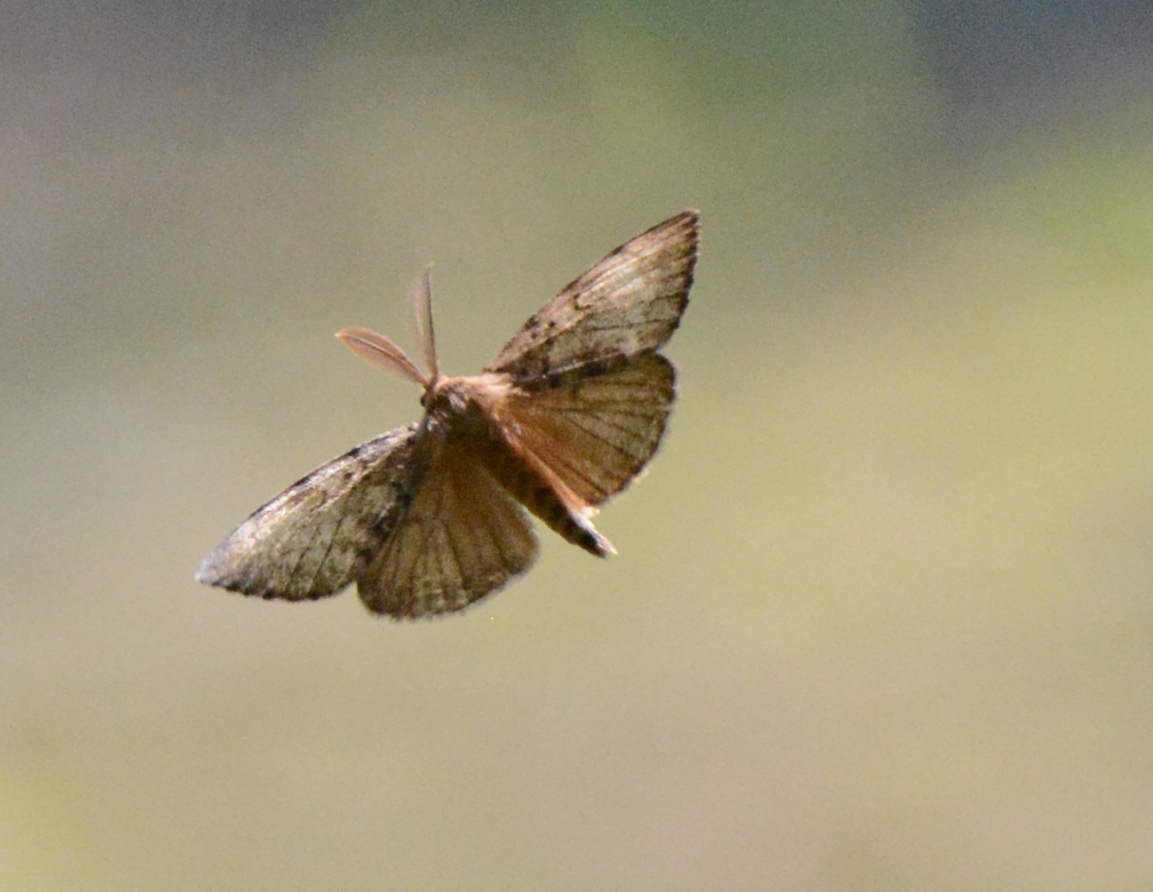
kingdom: Animalia
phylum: Arthropoda
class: Insecta
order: Lepidoptera
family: Erebidae
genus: Lymantria
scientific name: Lymantria dispar
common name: Gypsy moth
